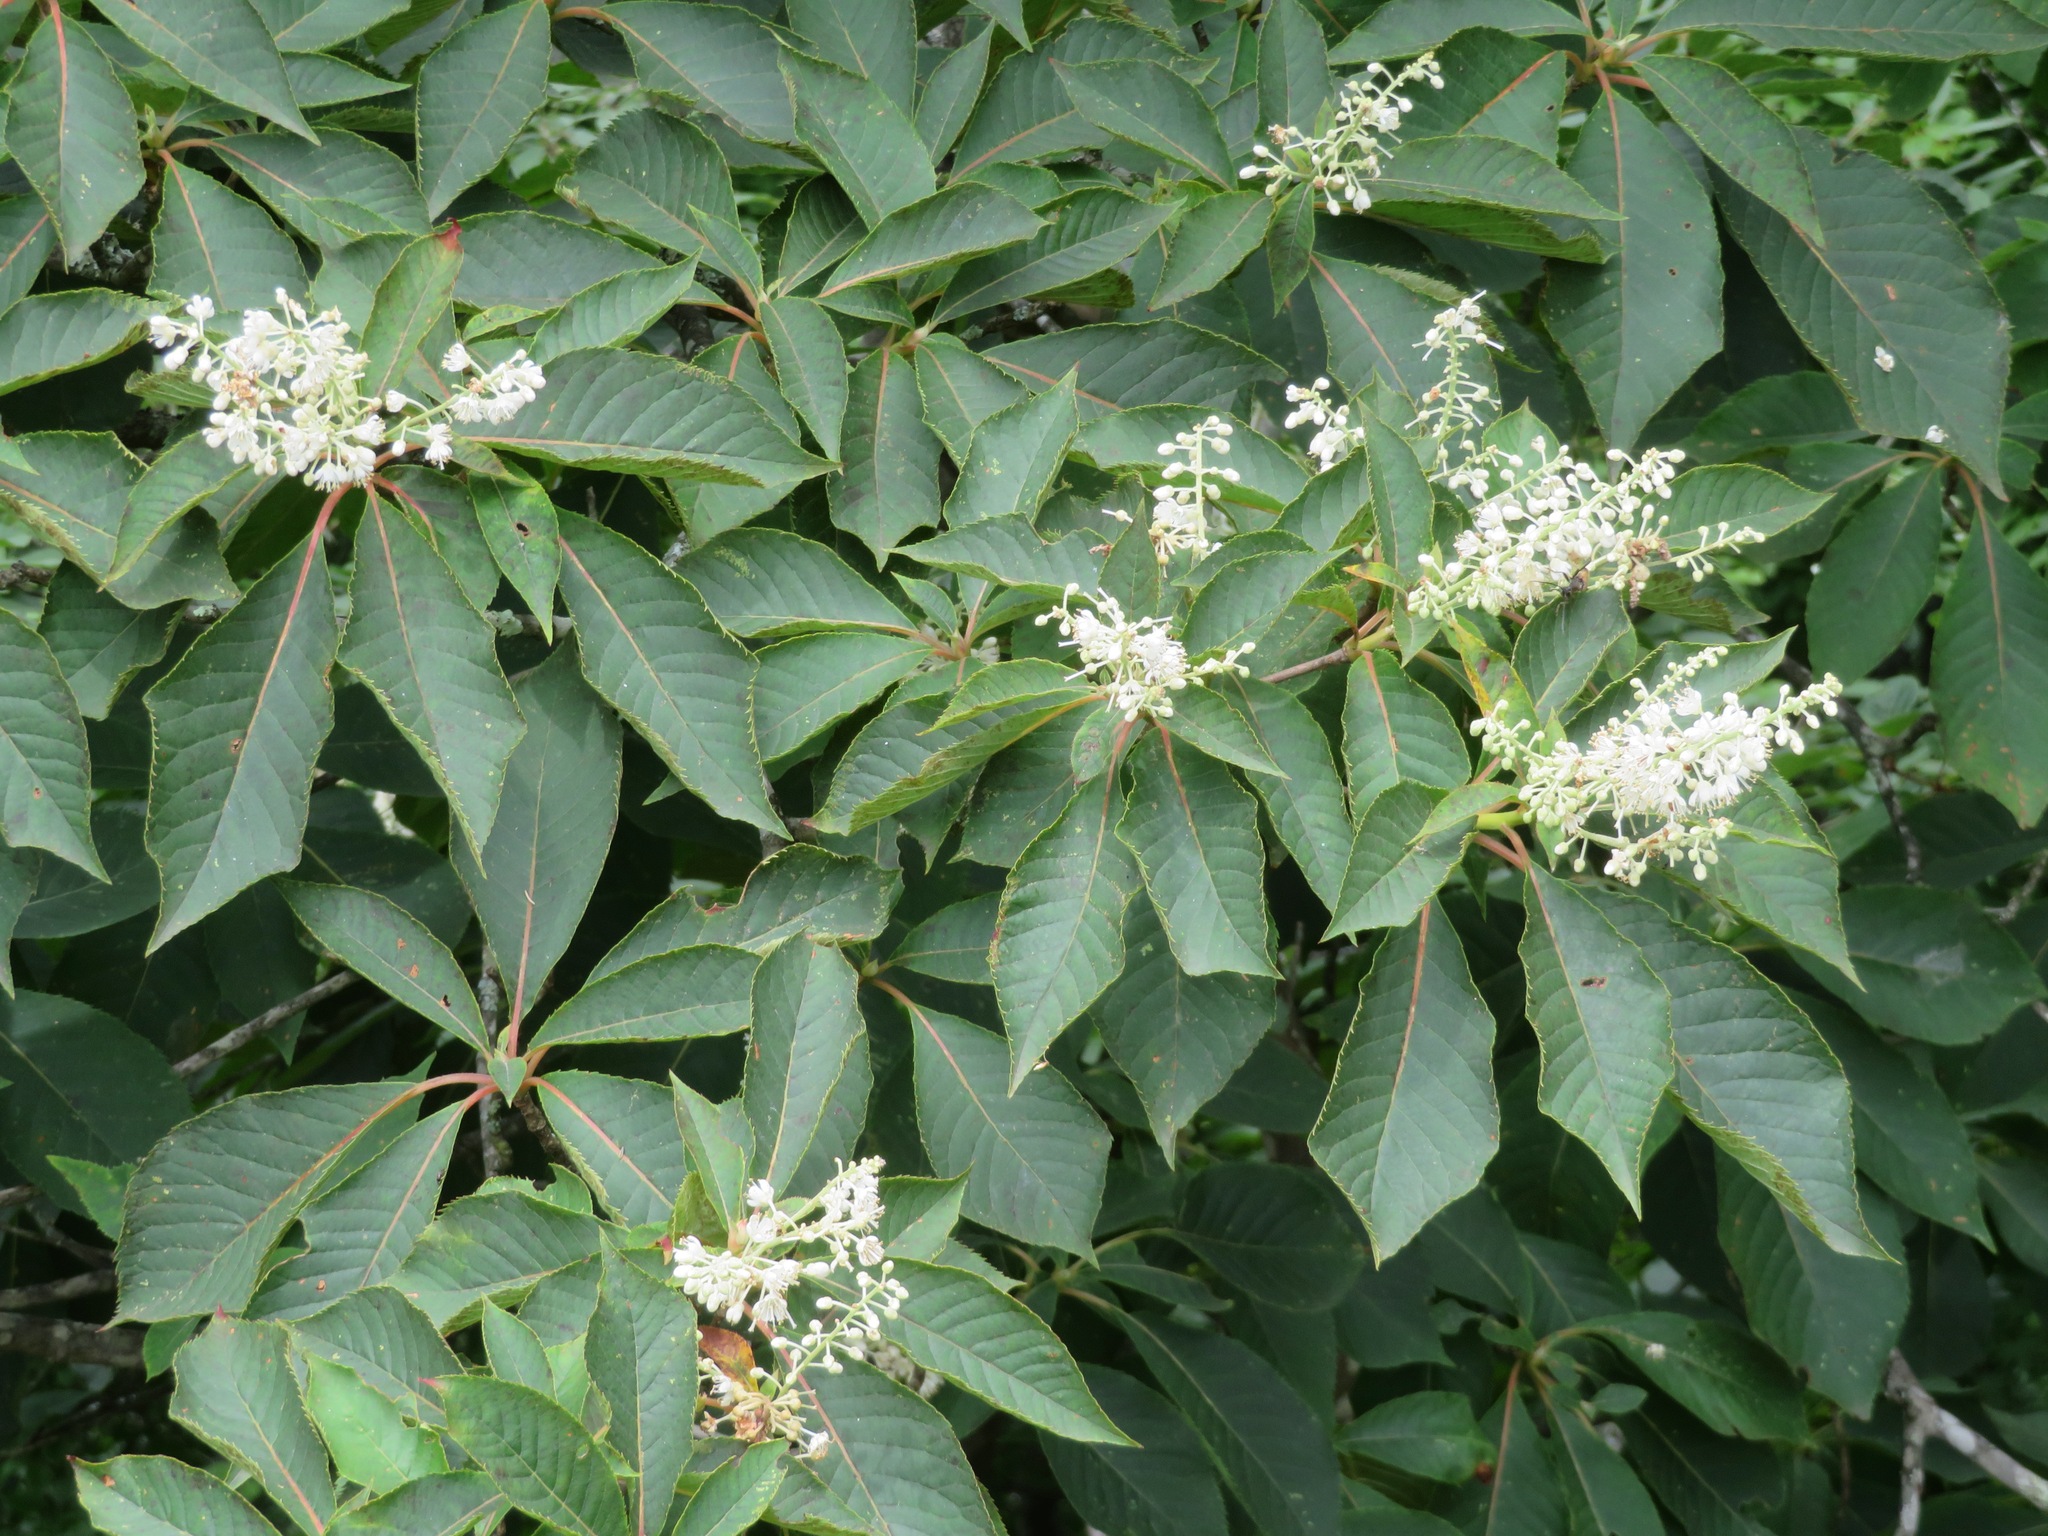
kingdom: Plantae
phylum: Tracheophyta
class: Magnoliopsida
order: Ericales
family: Clethraceae
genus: Clethra
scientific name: Clethra barbinervis
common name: Japanese clethra
